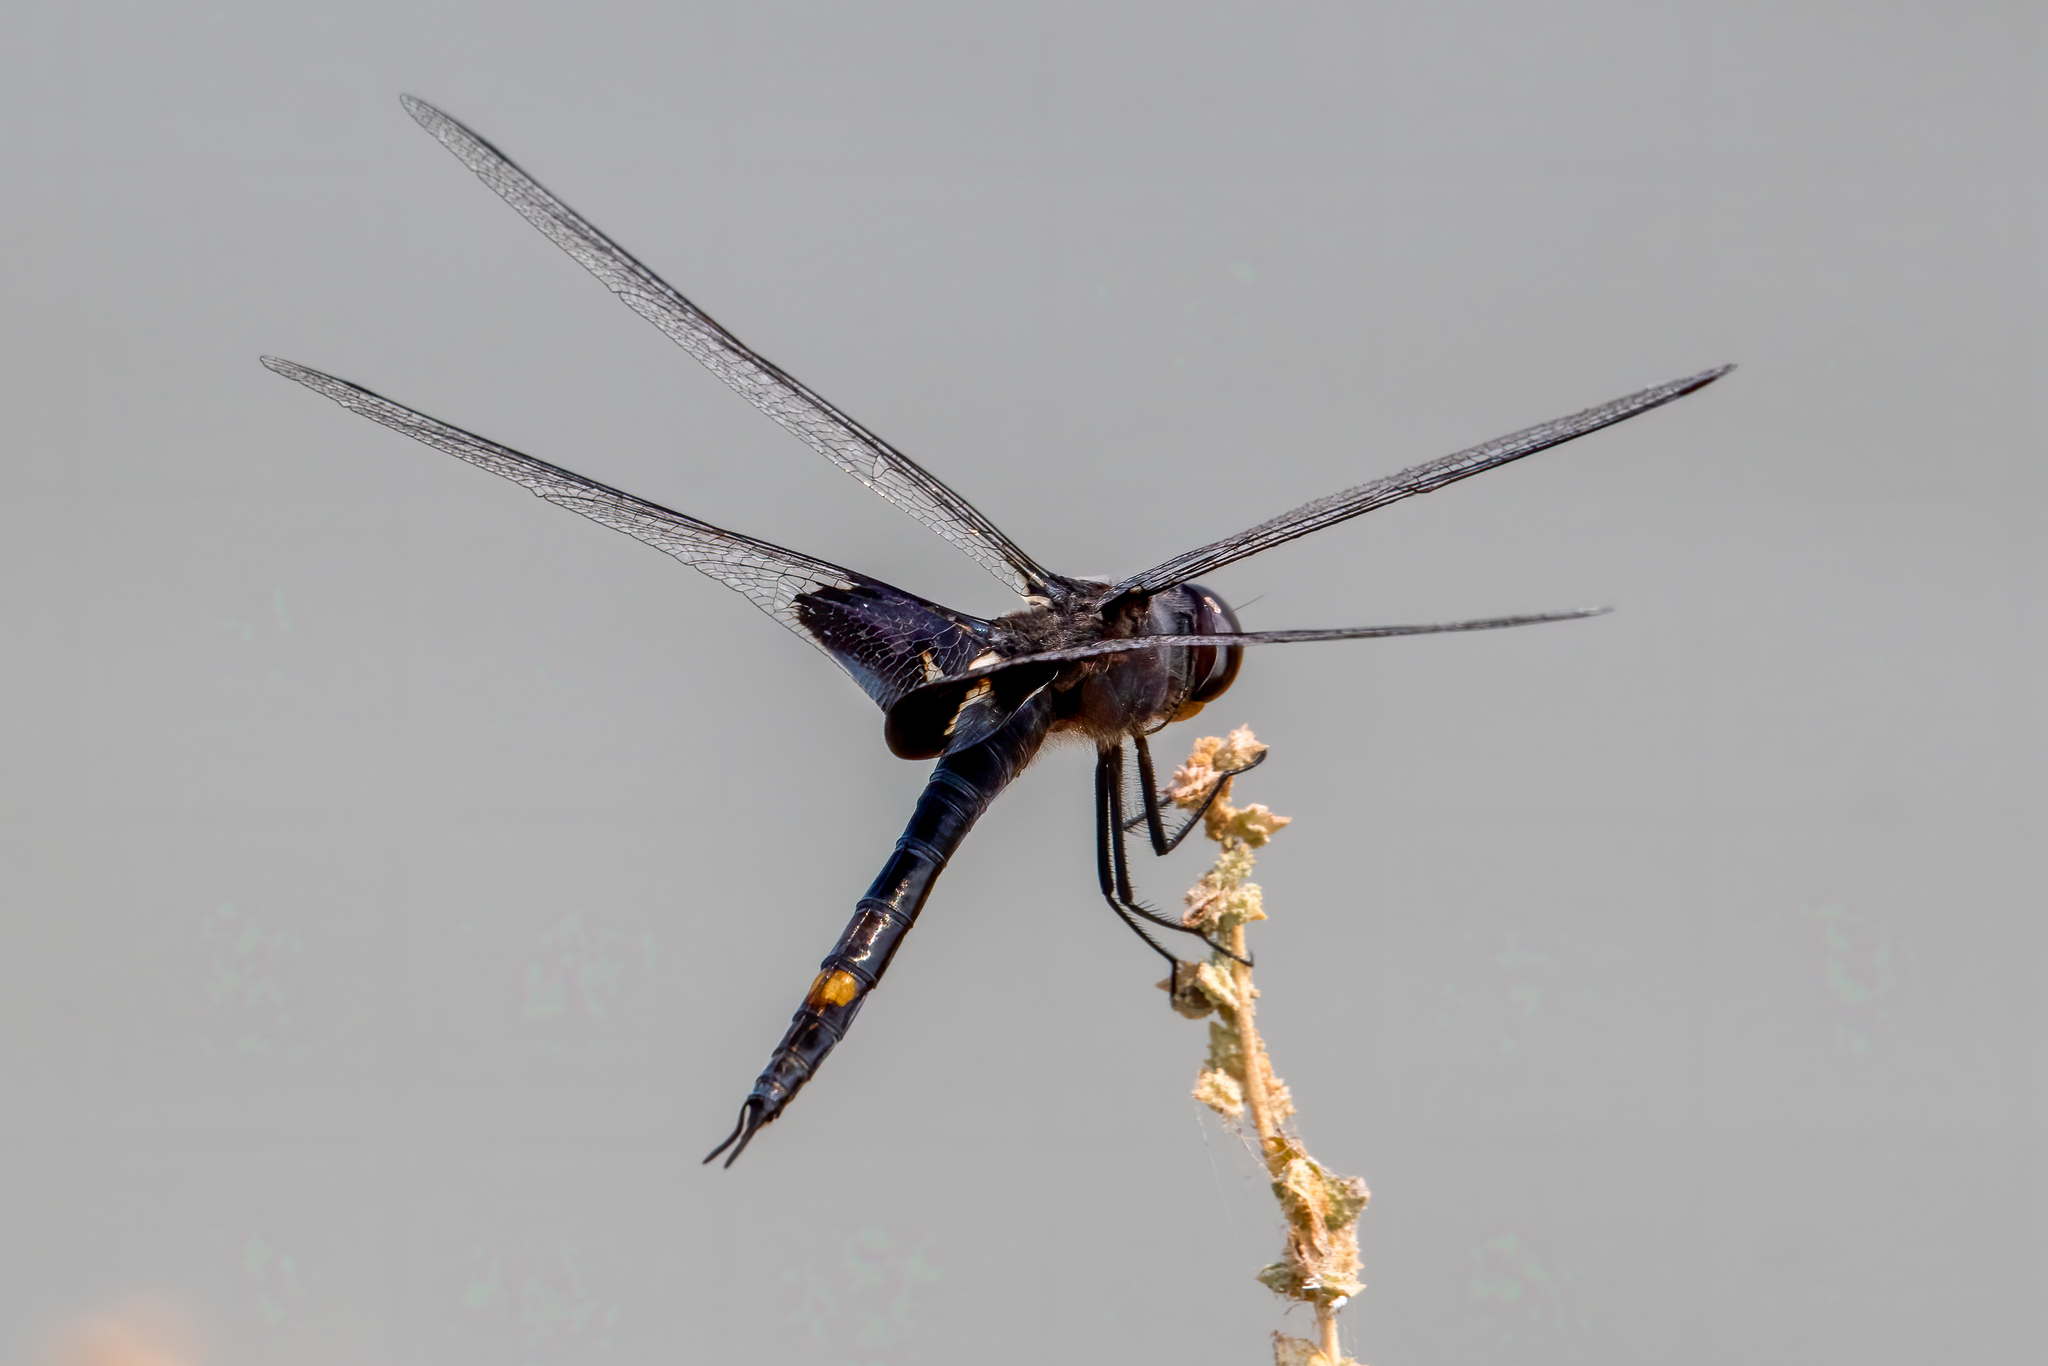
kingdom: Animalia
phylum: Arthropoda
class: Insecta
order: Odonata
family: Libellulidae
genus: Tramea
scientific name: Tramea lacerata
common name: Black saddlebags
